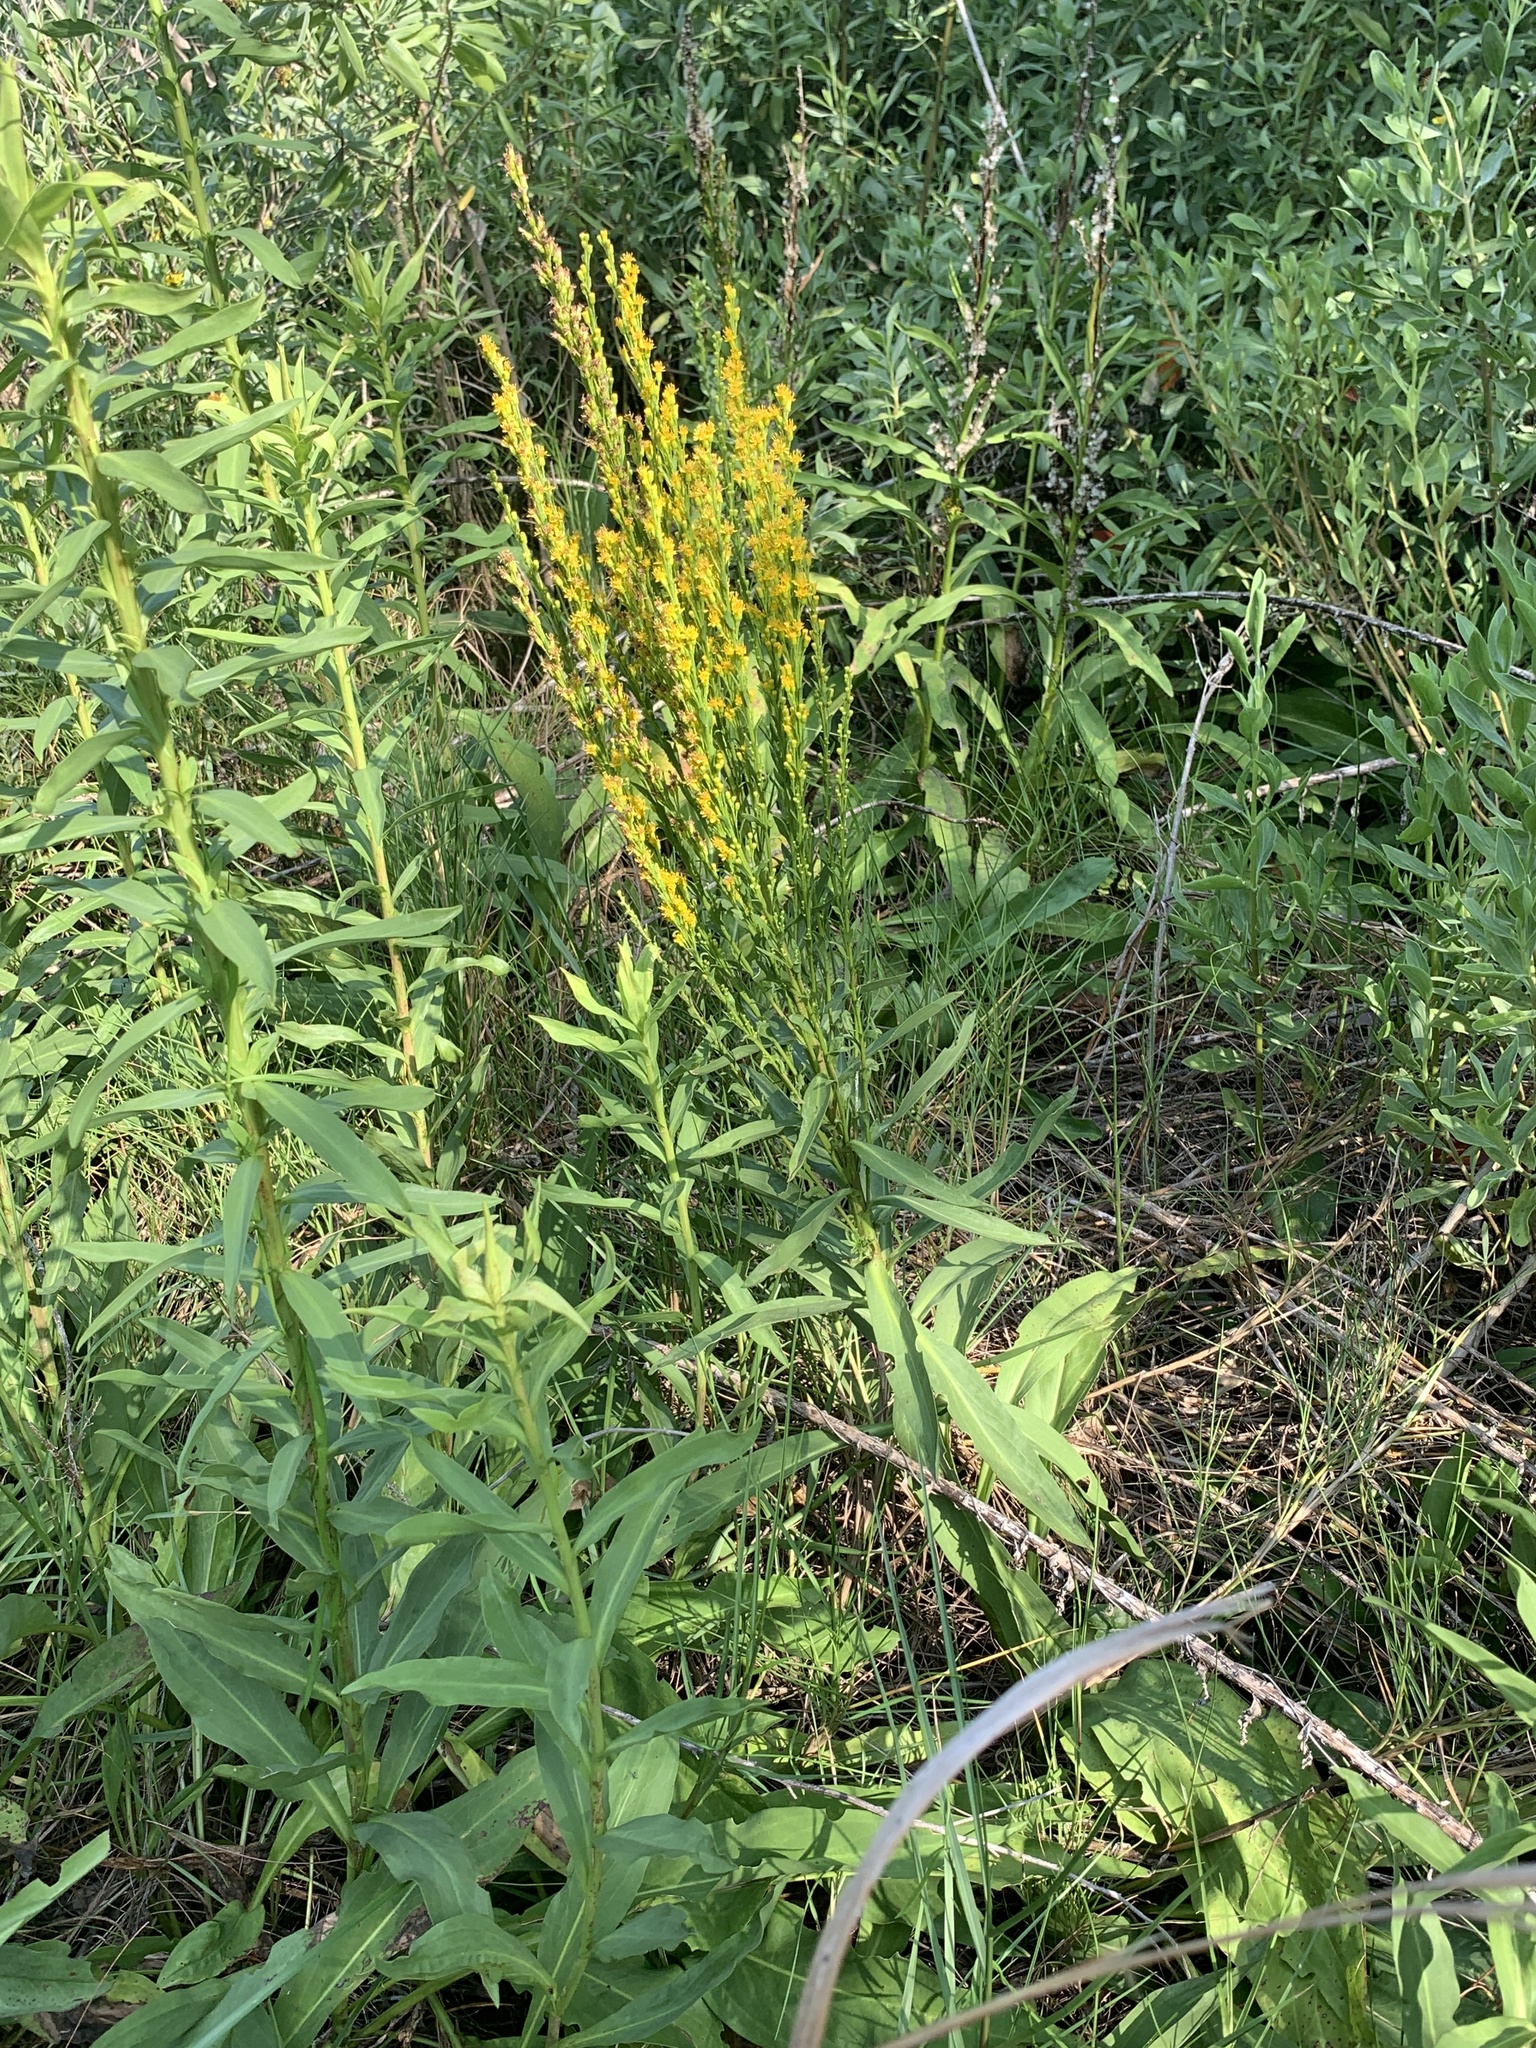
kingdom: Plantae
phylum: Tracheophyta
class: Magnoliopsida
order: Asterales
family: Asteraceae
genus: Solidago
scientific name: Solidago mexicana
